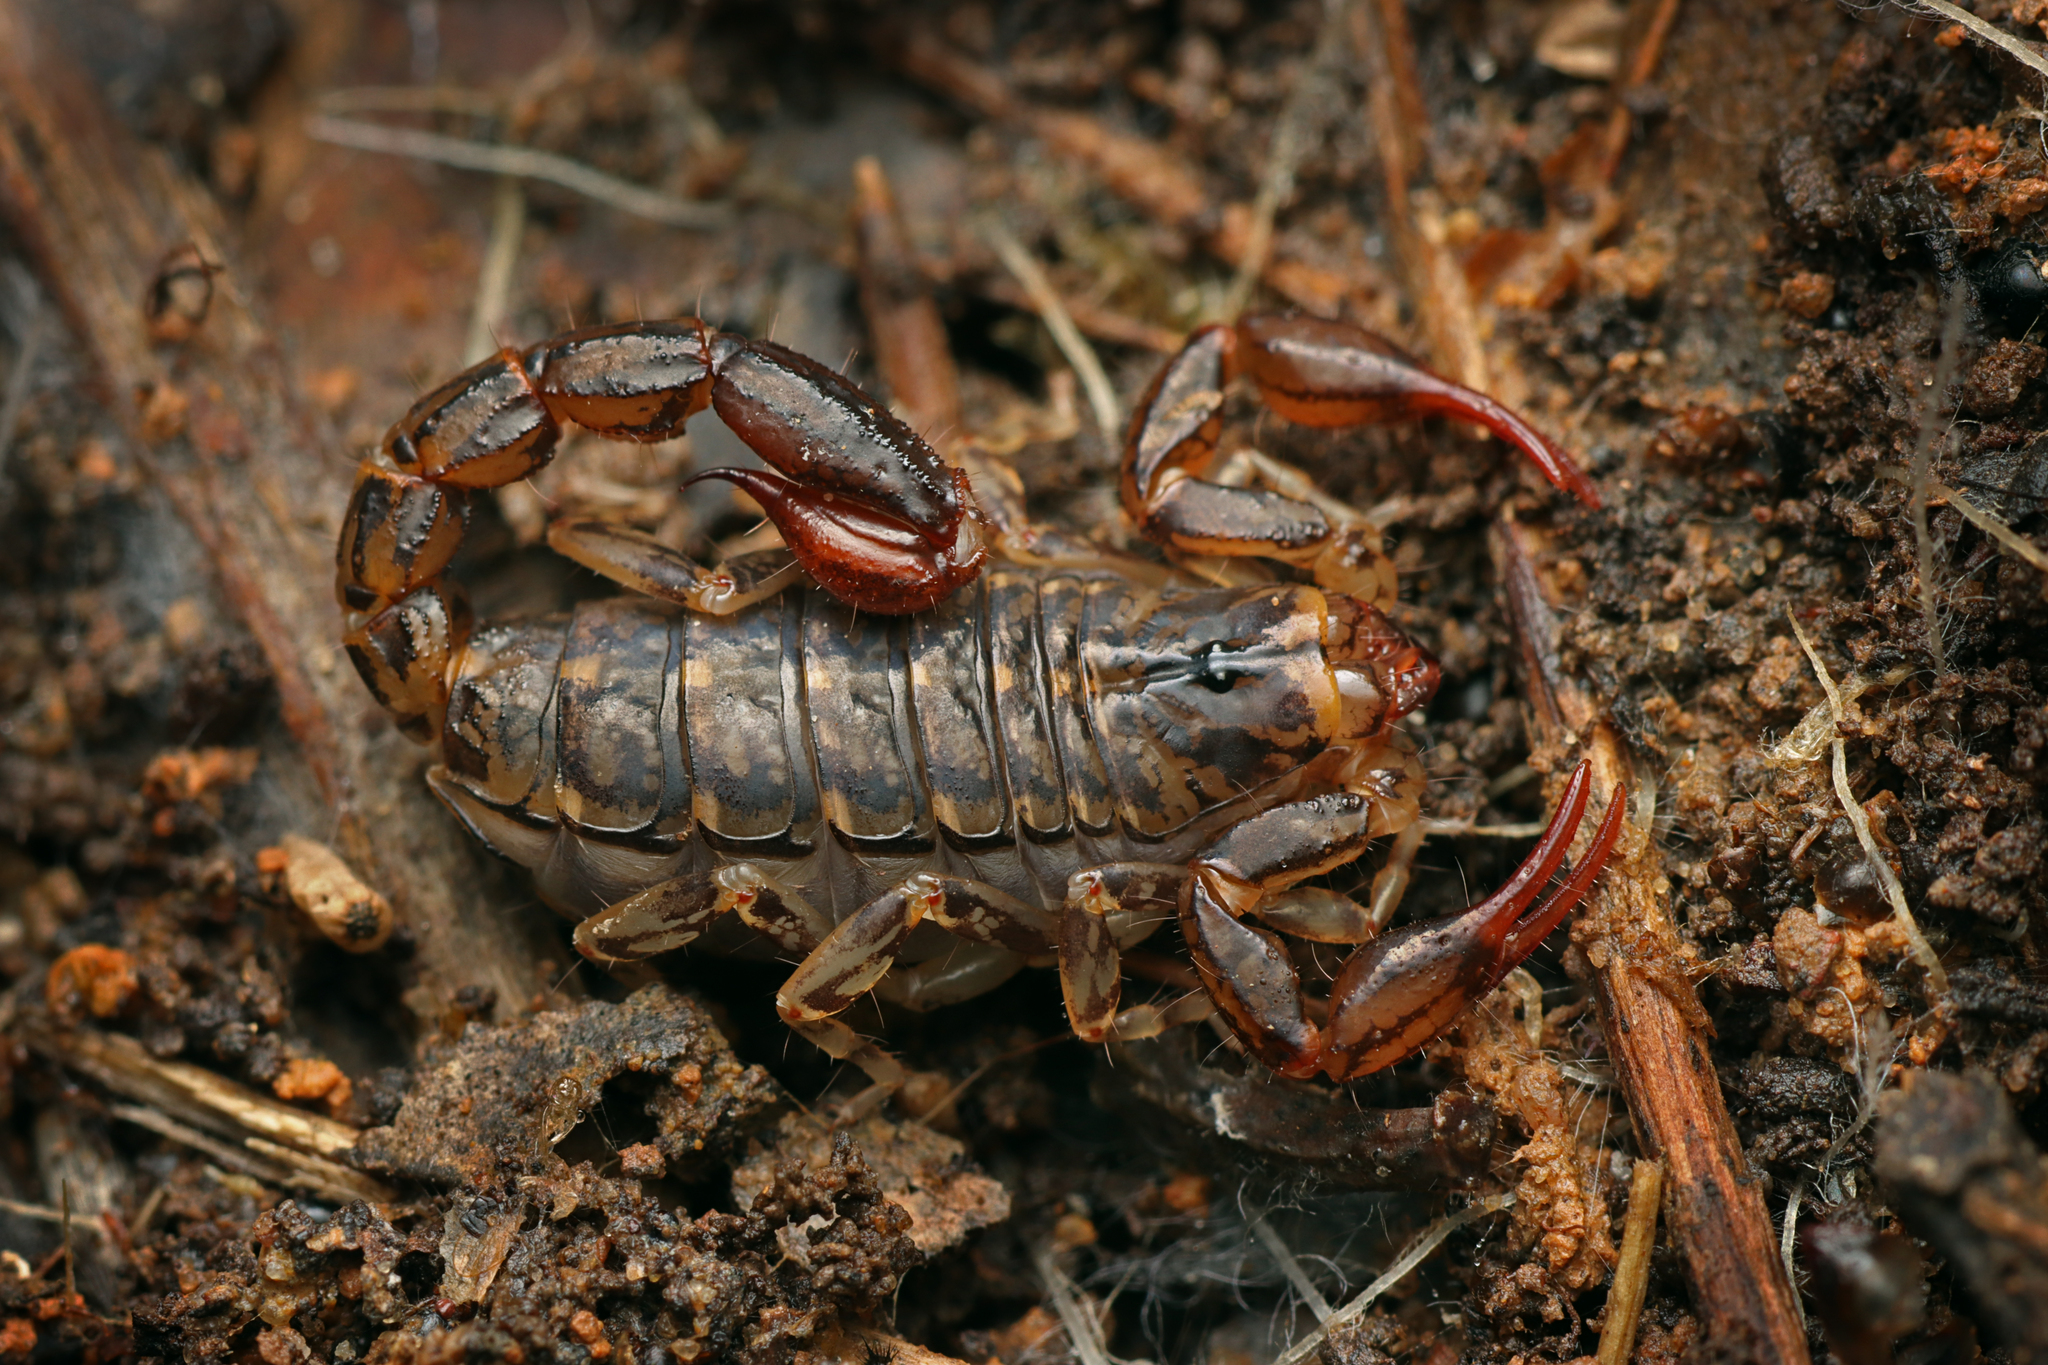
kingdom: Animalia
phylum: Arthropoda
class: Arachnida
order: Scorpiones
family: Bothriuridae
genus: Cercophonius
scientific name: Cercophonius squama
